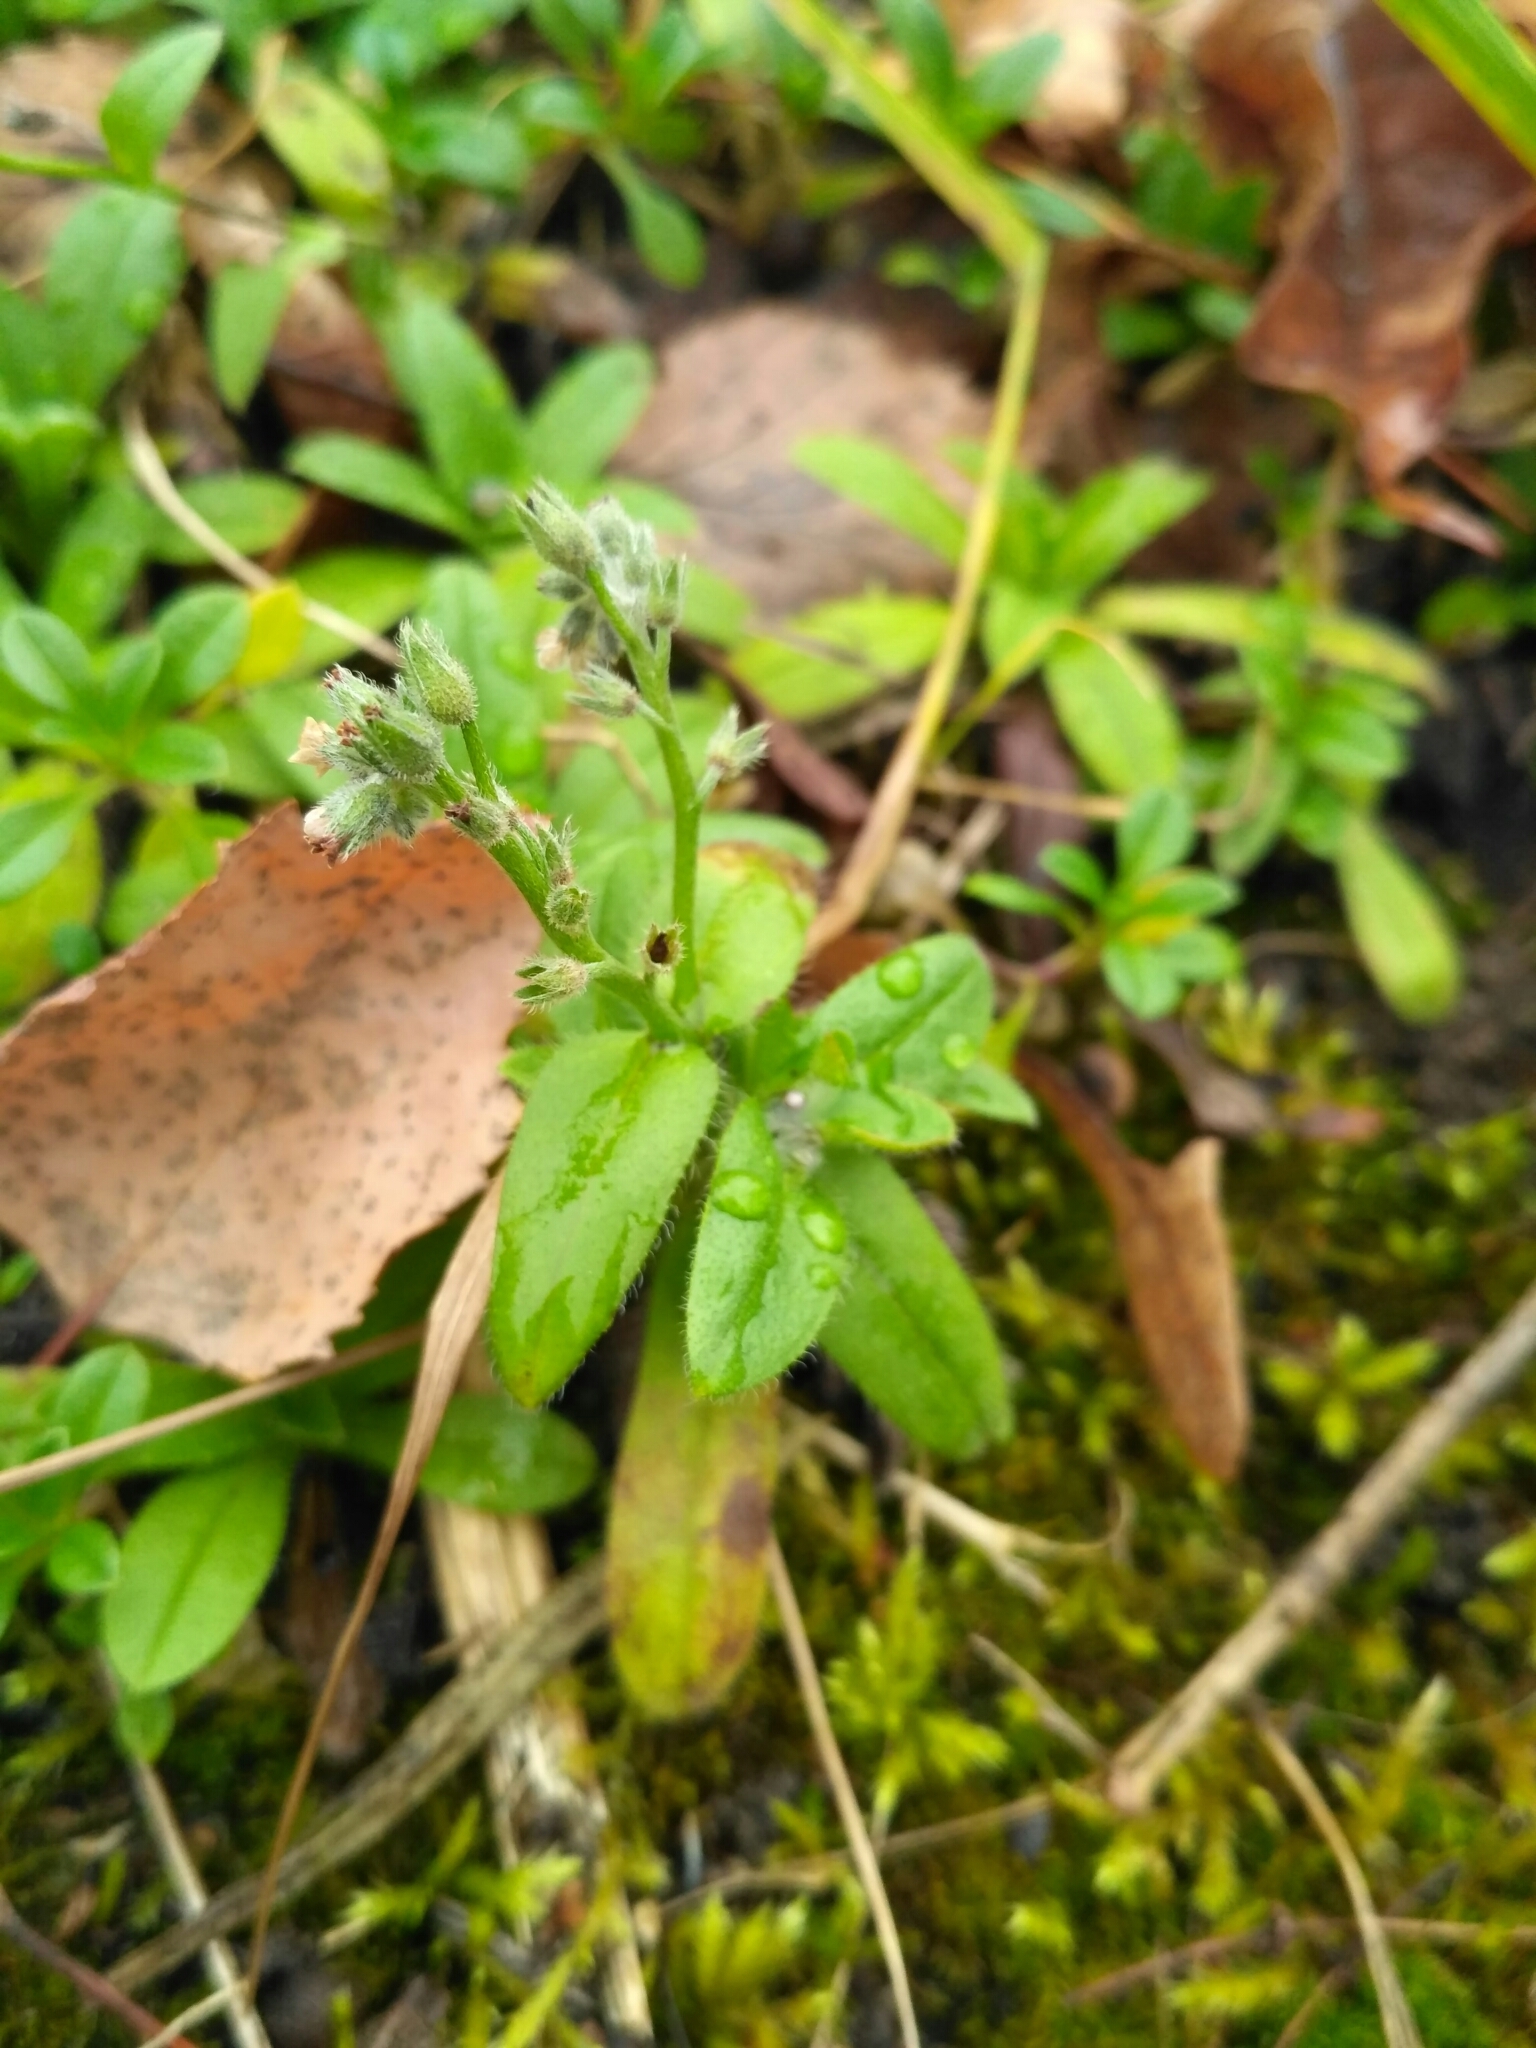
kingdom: Plantae
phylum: Tracheophyta
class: Magnoliopsida
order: Boraginales
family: Boraginaceae
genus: Myosotis
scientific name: Myosotis arvensis
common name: Field forget-me-not
